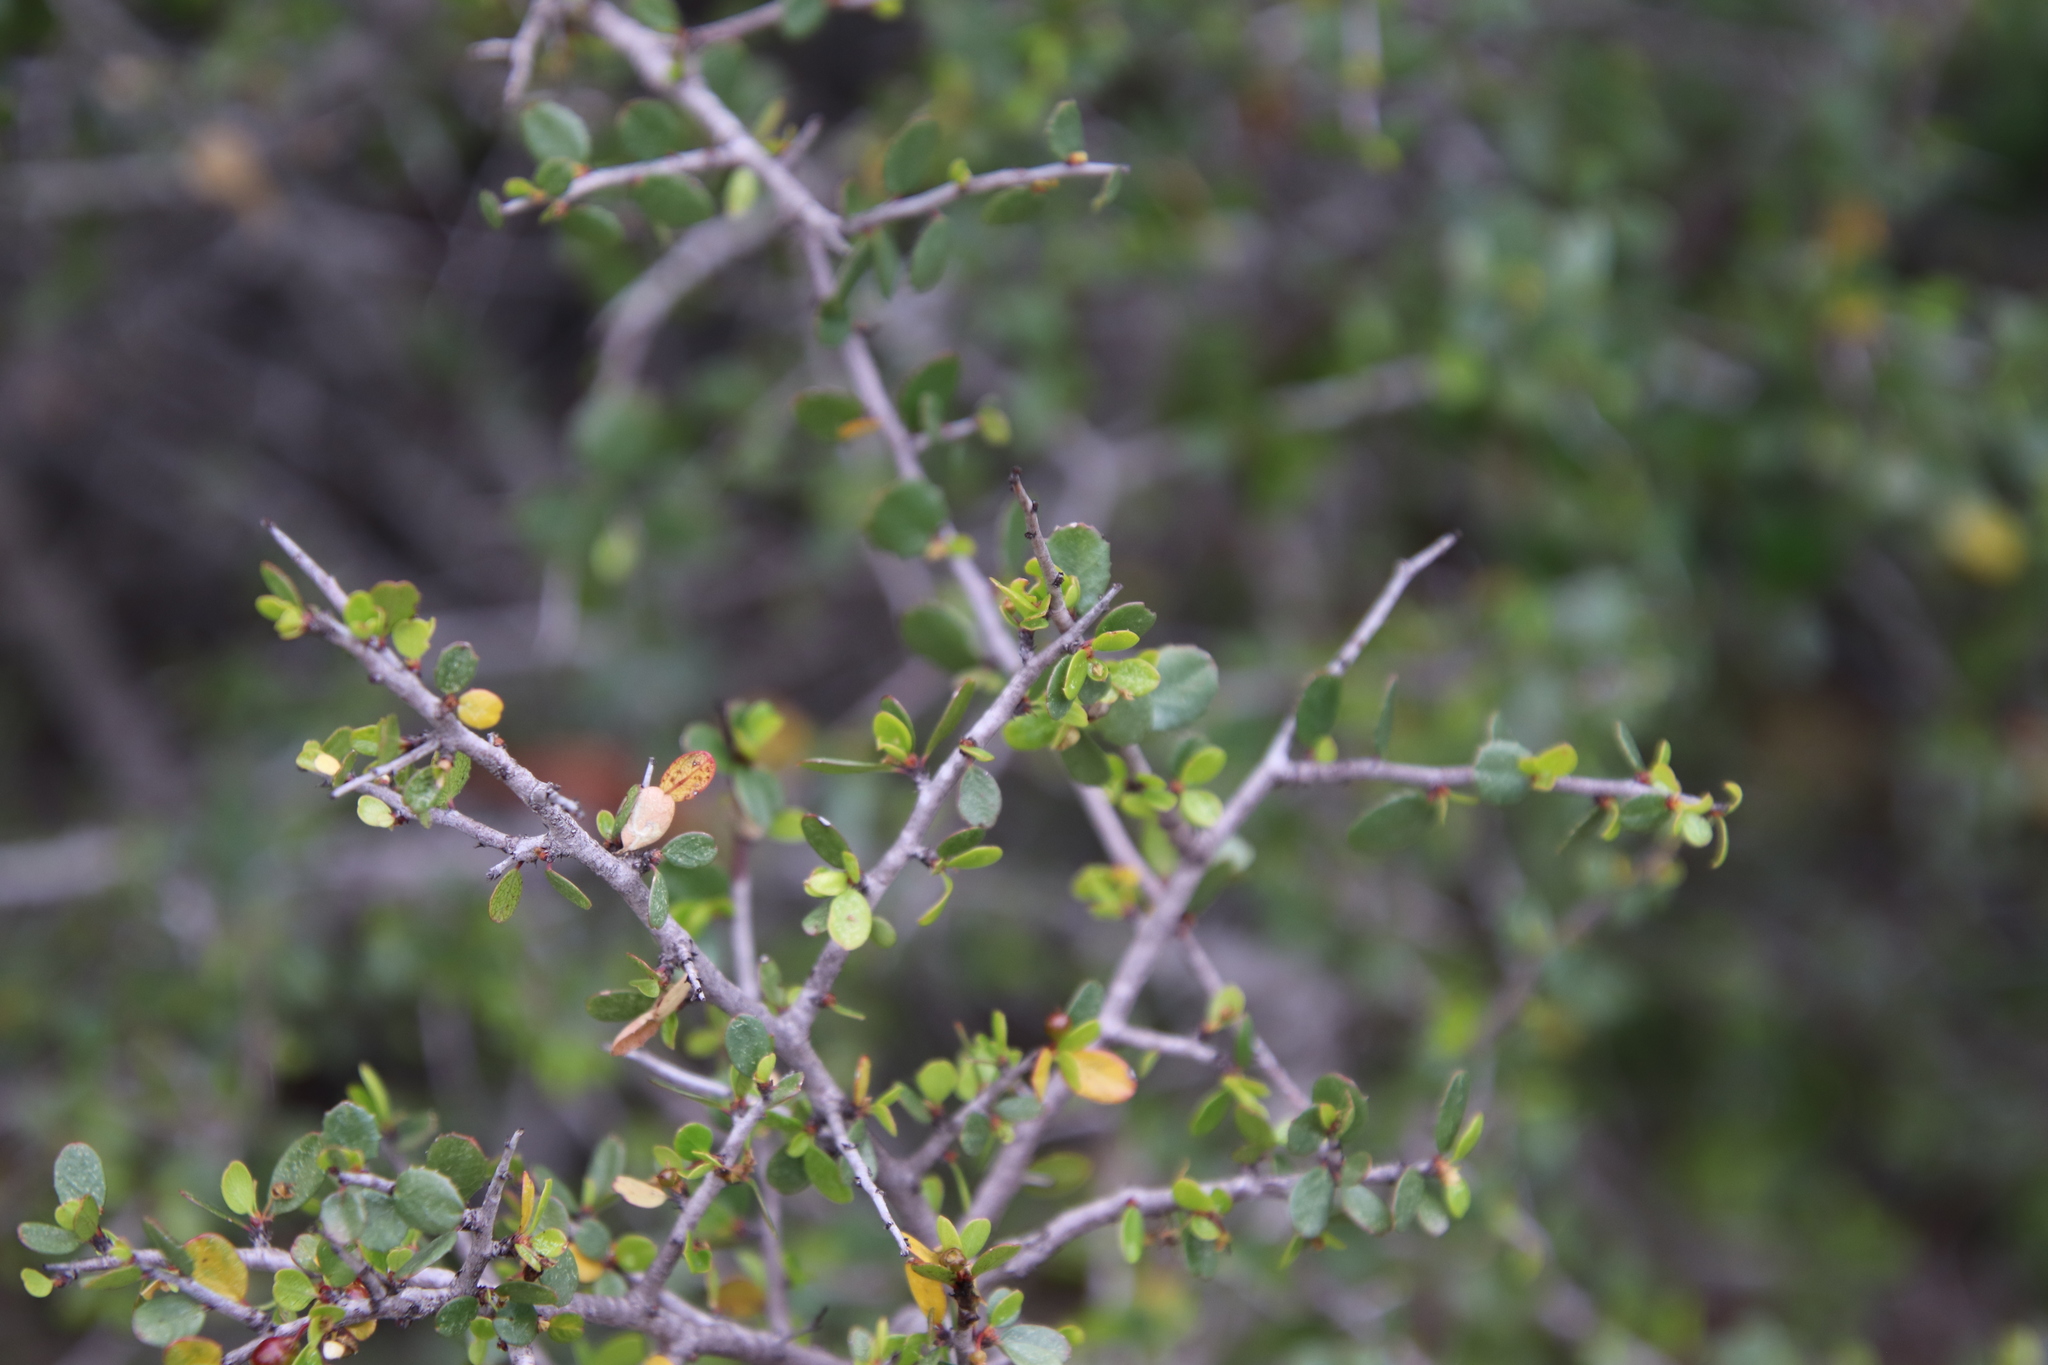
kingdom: Plantae
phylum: Tracheophyta
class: Magnoliopsida
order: Rosales
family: Rhamnaceae
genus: Endotropis
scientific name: Endotropis crocea
